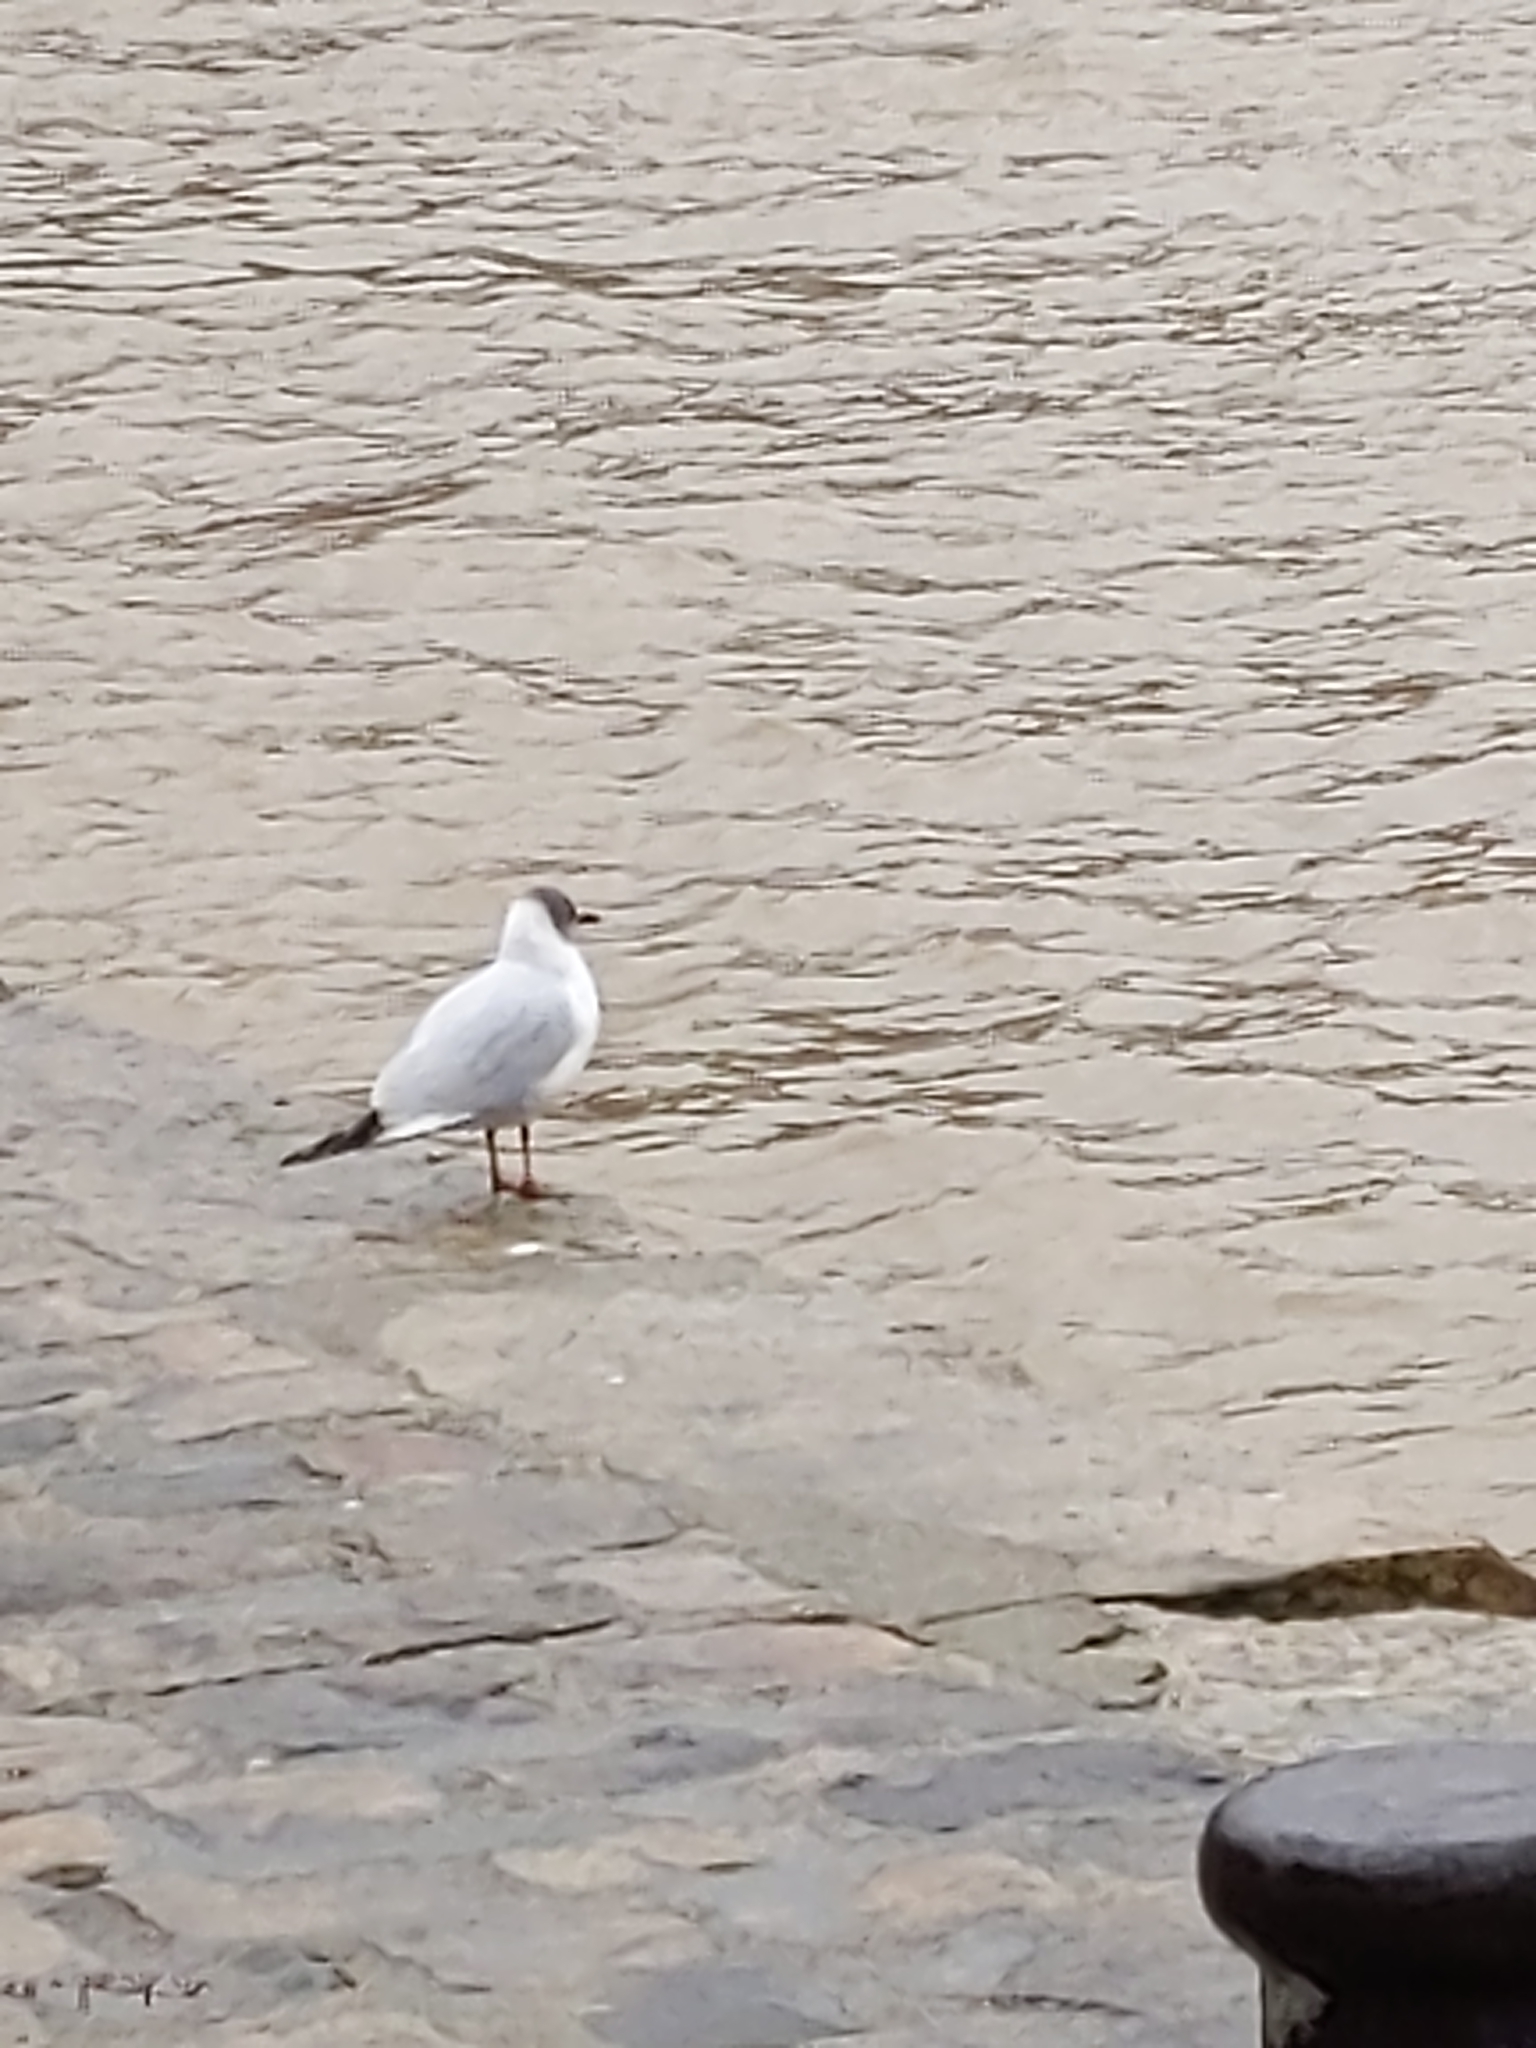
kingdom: Animalia
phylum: Chordata
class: Aves
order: Charadriiformes
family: Laridae
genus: Chroicocephalus
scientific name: Chroicocephalus ridibundus
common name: Black-headed gull
